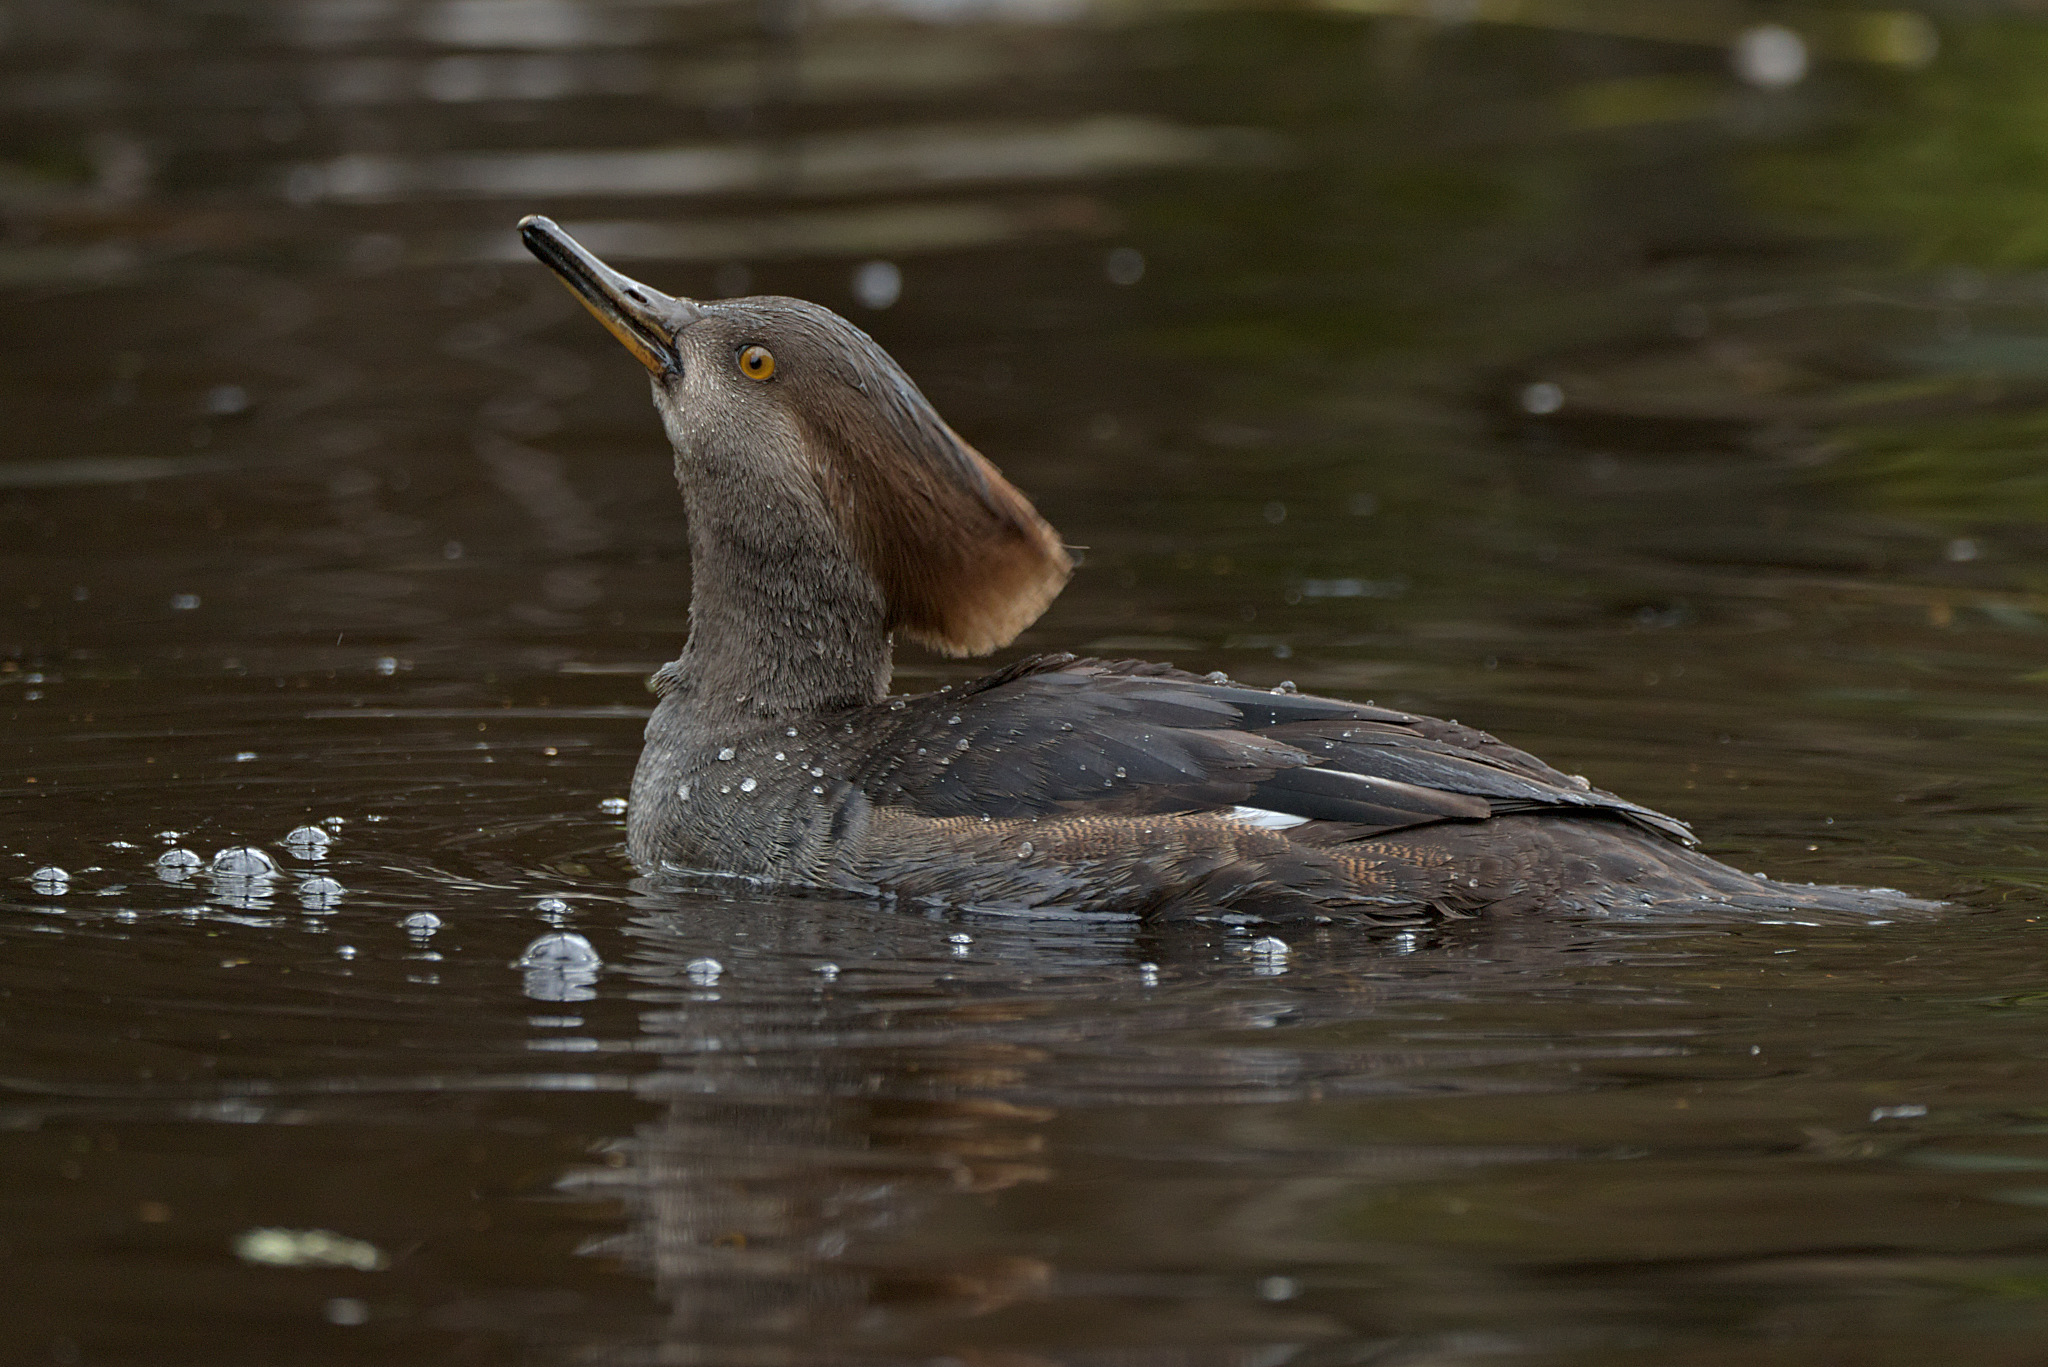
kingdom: Animalia
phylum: Chordata
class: Aves
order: Anseriformes
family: Anatidae
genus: Lophodytes
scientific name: Lophodytes cucullatus
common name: Hooded merganser
